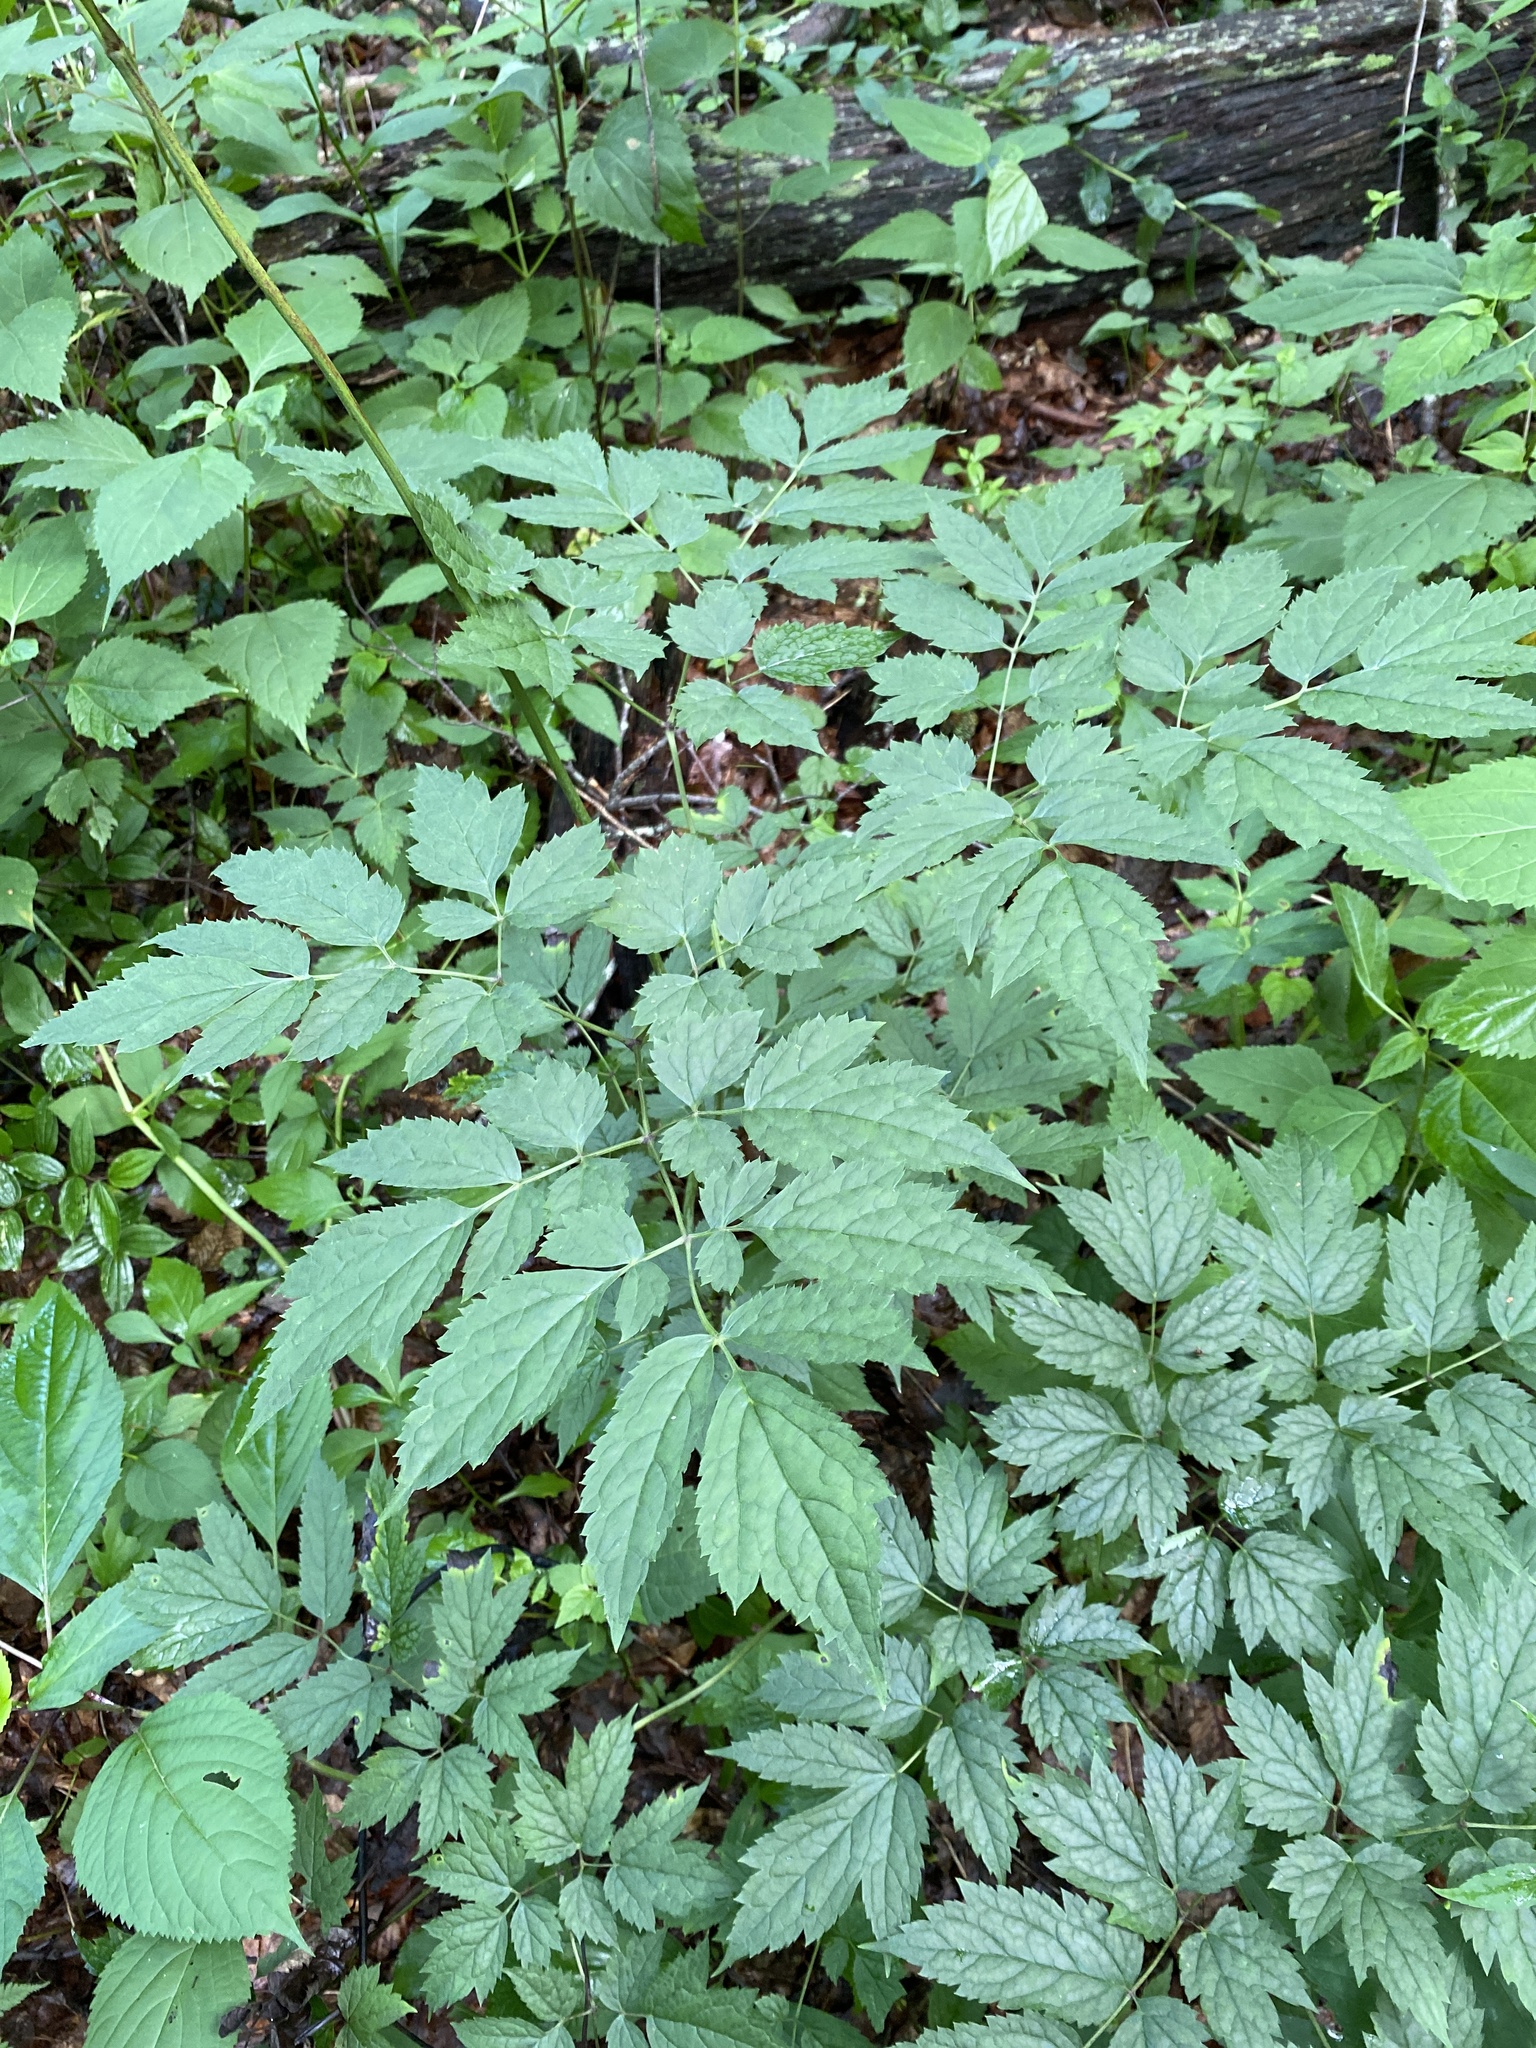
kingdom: Plantae
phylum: Tracheophyta
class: Magnoliopsida
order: Ranunculales
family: Ranunculaceae
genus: Actaea
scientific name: Actaea racemosa
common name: Black cohosh
